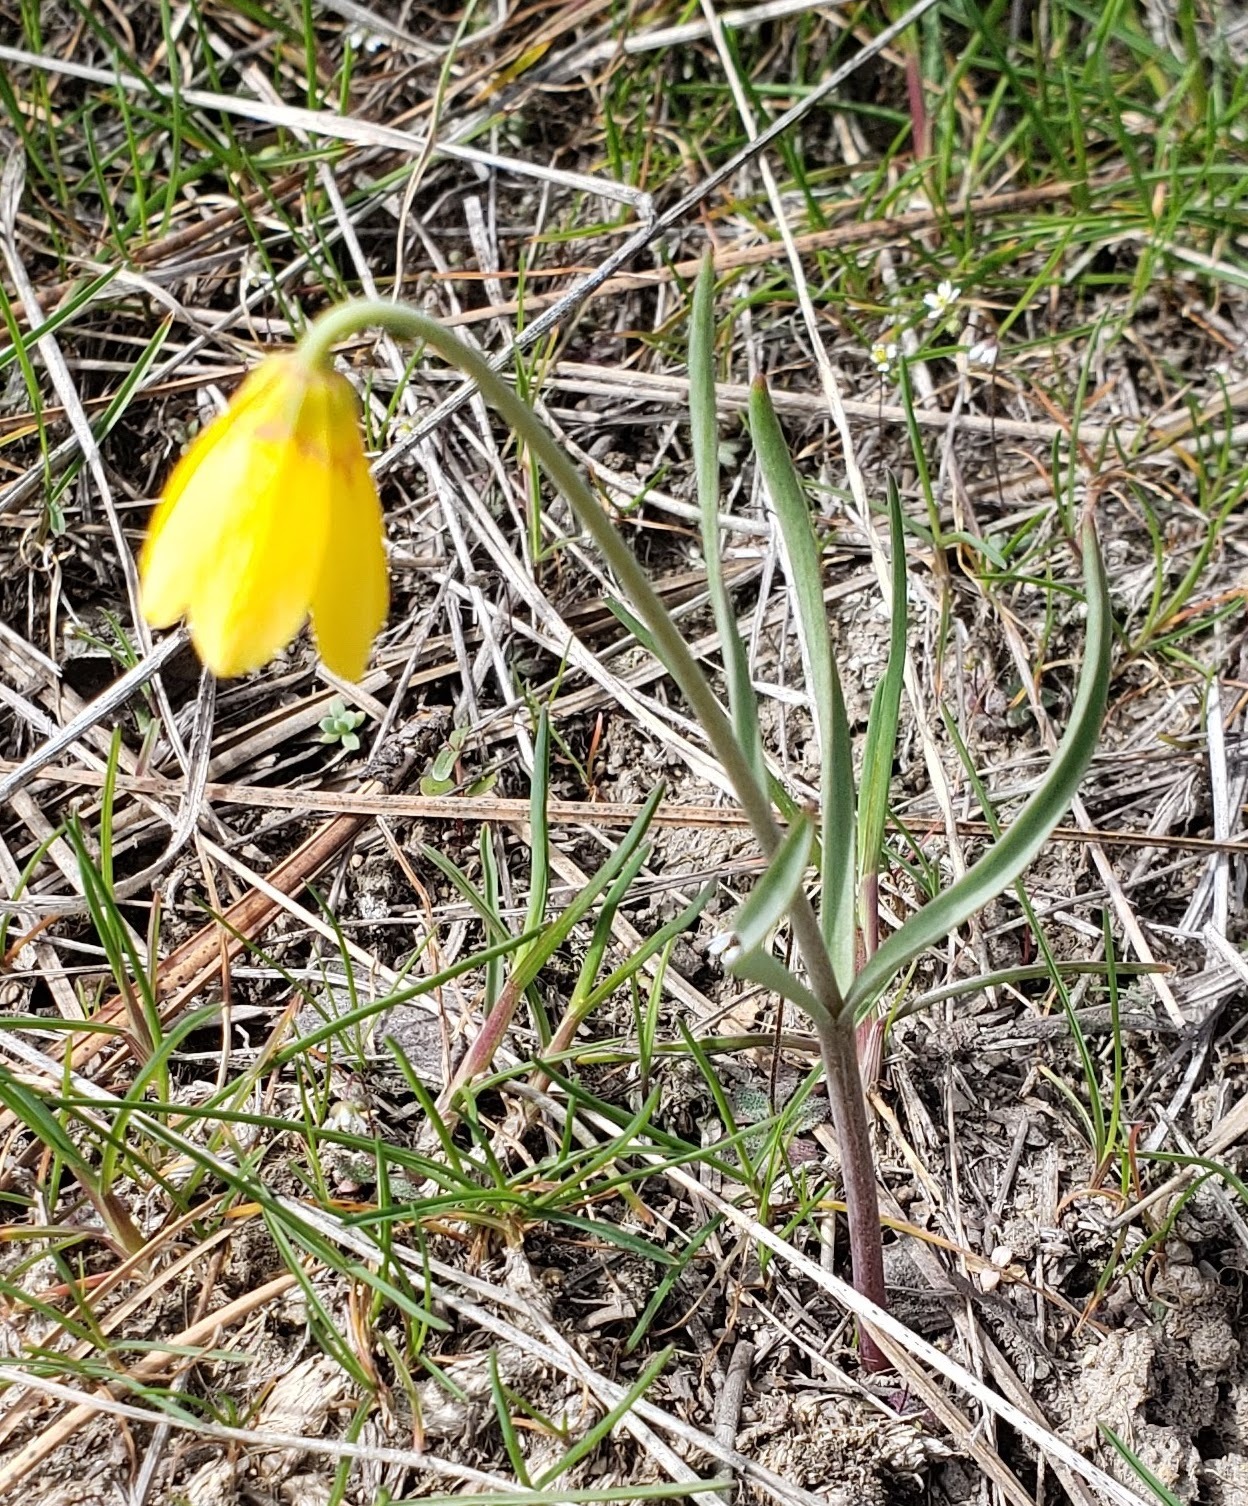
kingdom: Plantae
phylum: Tracheophyta
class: Liliopsida
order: Liliales
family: Liliaceae
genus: Fritillaria
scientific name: Fritillaria pudica
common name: Yellow fritillary
